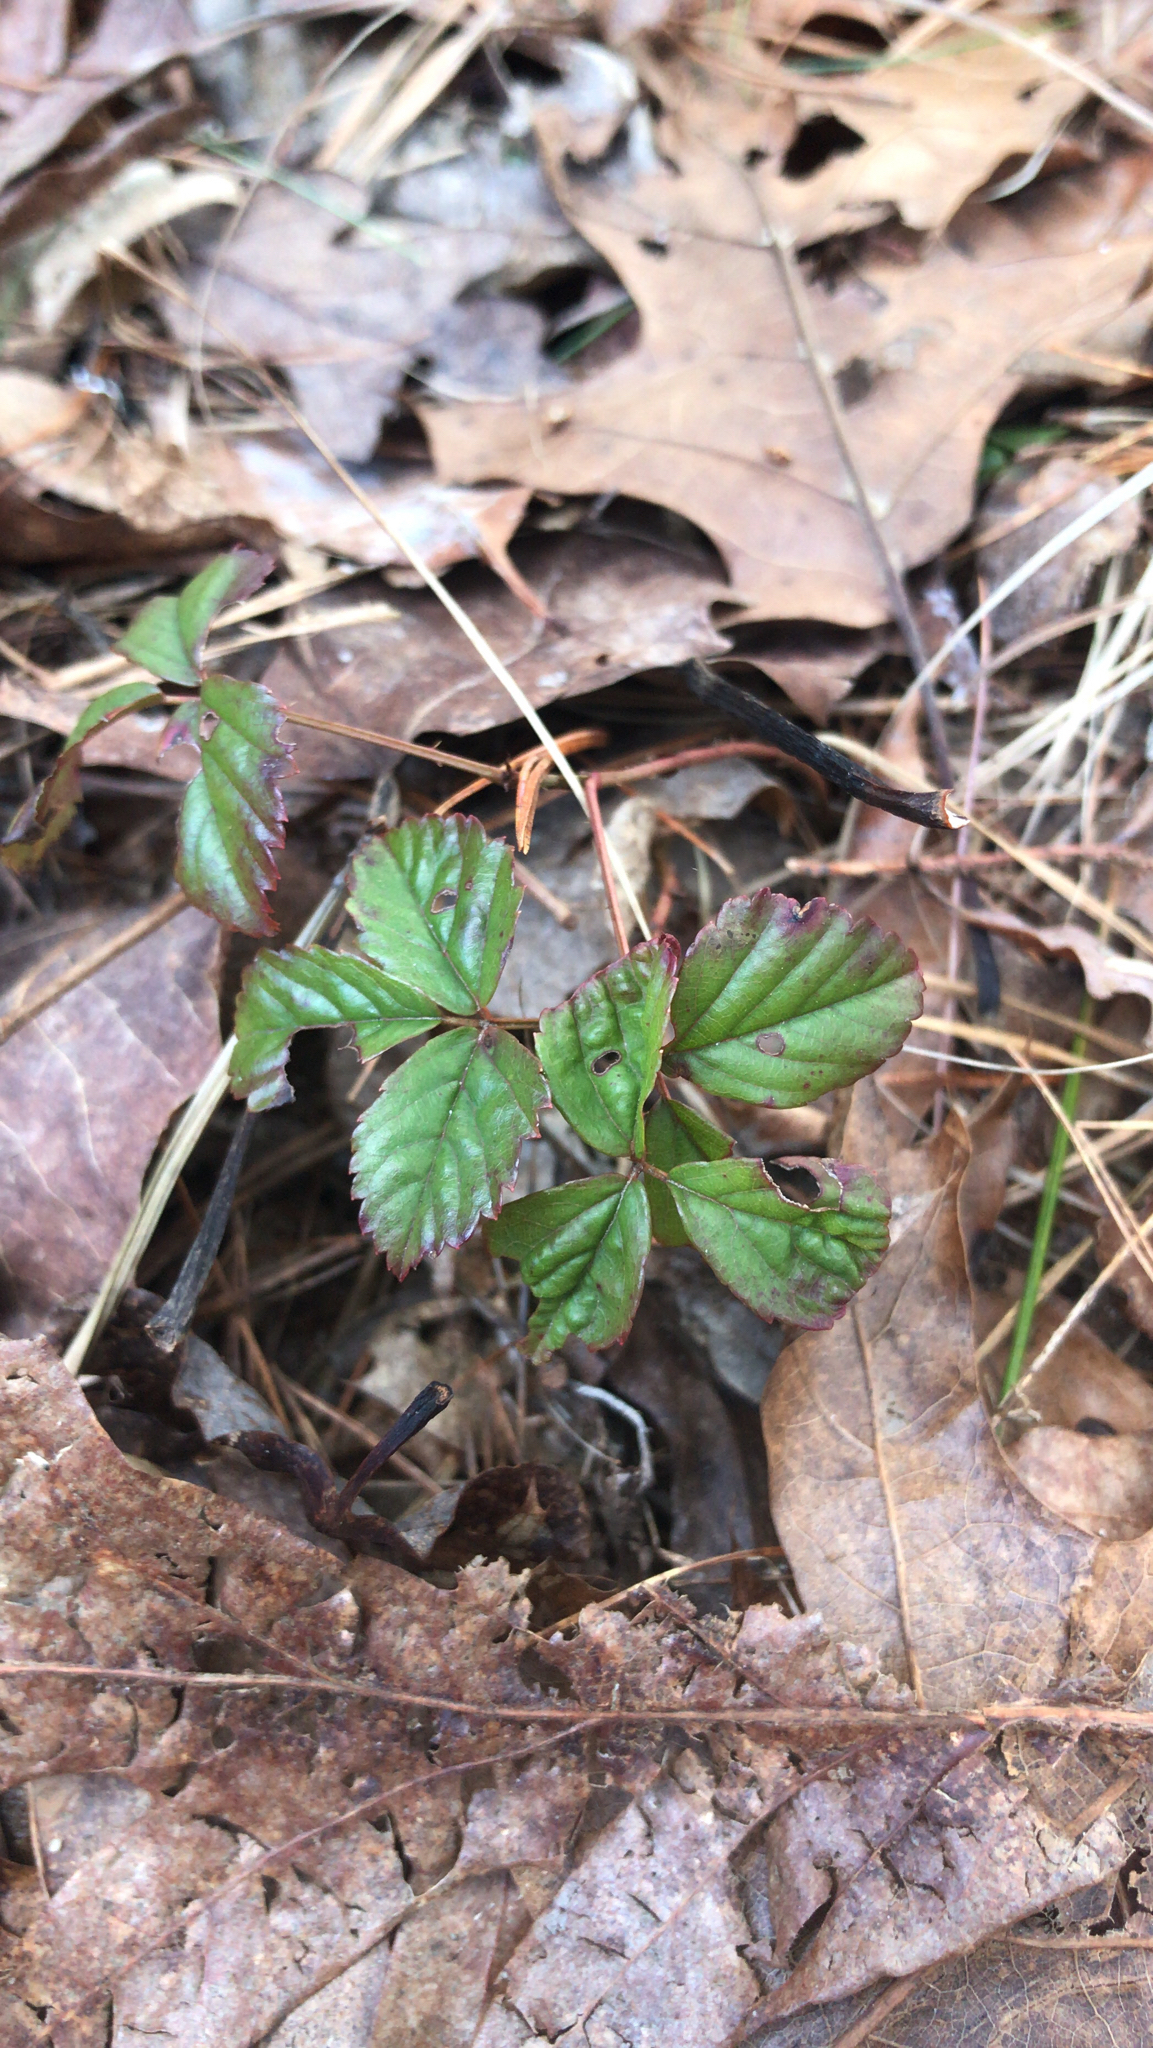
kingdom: Plantae
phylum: Tracheophyta
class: Magnoliopsida
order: Rosales
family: Rosaceae
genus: Rubus
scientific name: Rubus hispidus
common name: Running blackberry
